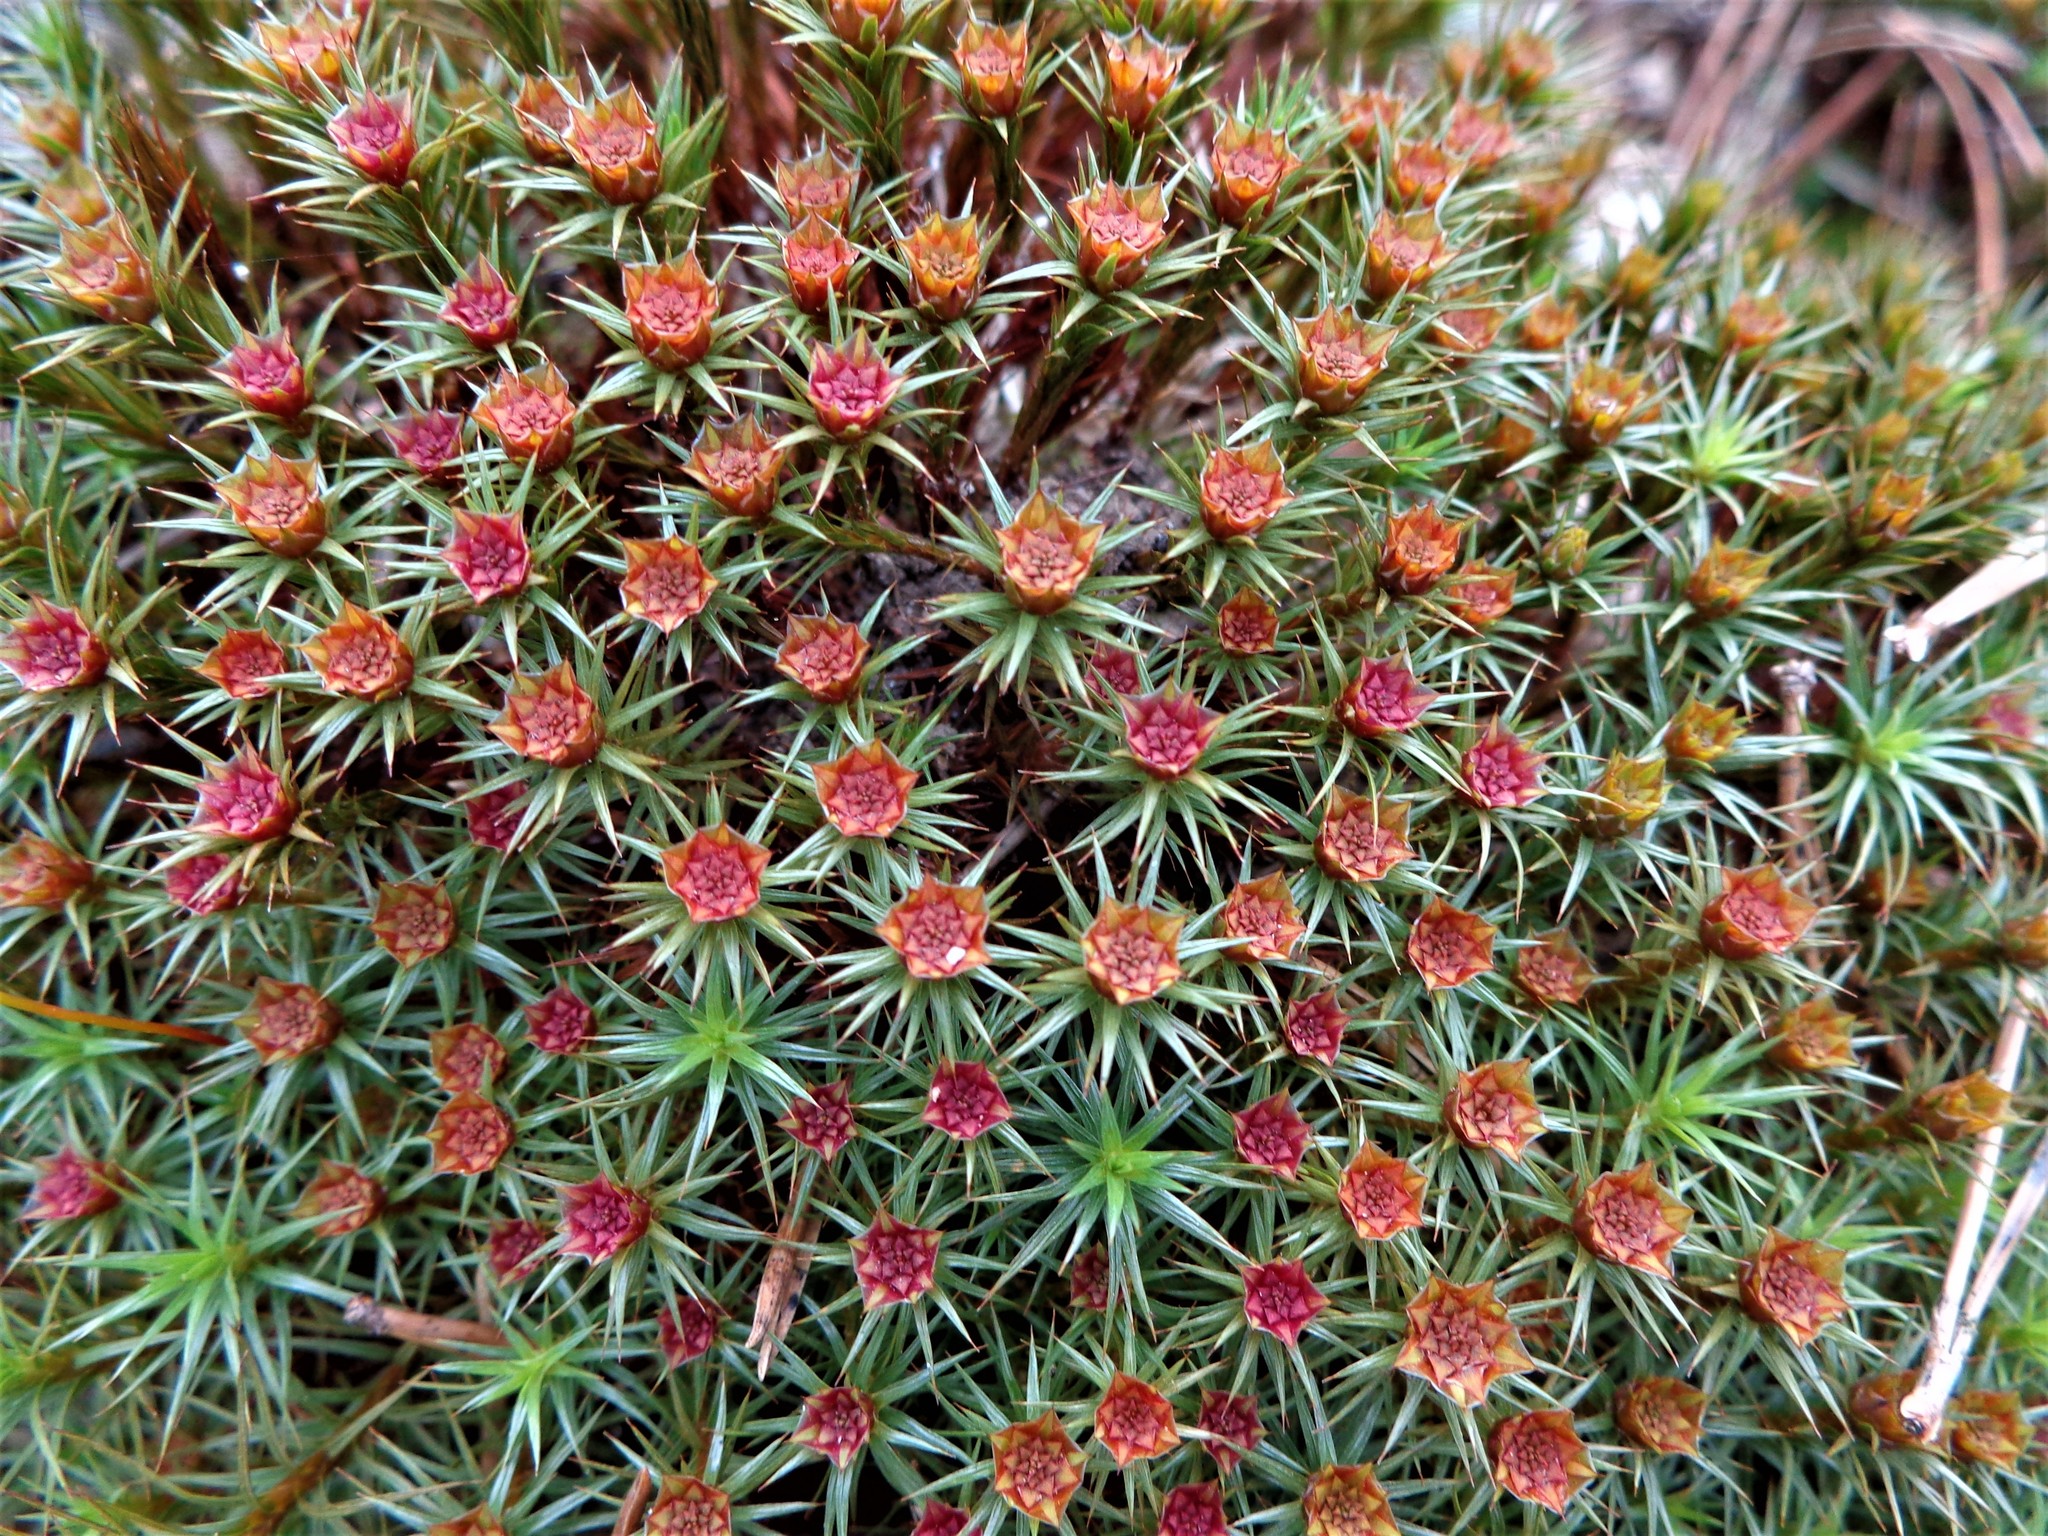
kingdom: Plantae
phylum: Bryophyta
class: Polytrichopsida
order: Polytrichales
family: Polytrichaceae
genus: Polytrichum
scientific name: Polytrichum juniperinum
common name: Juniper haircap moss
